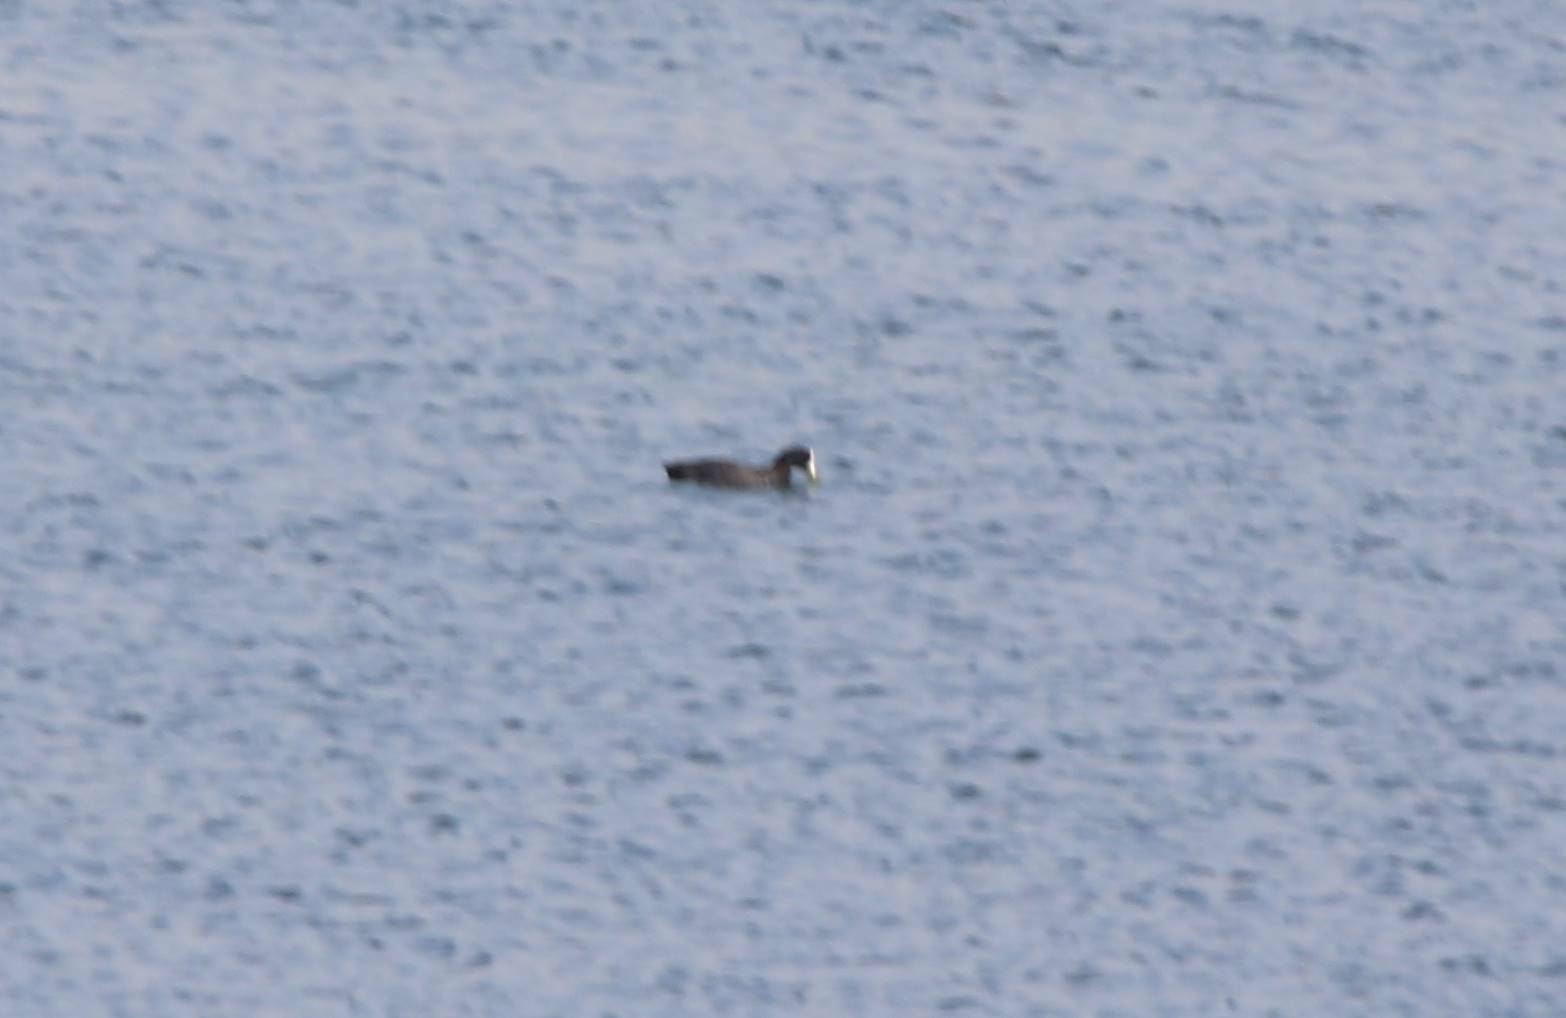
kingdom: Animalia
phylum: Chordata
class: Aves
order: Gruiformes
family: Rallidae
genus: Fulica
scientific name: Fulica atra
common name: Eurasian coot
